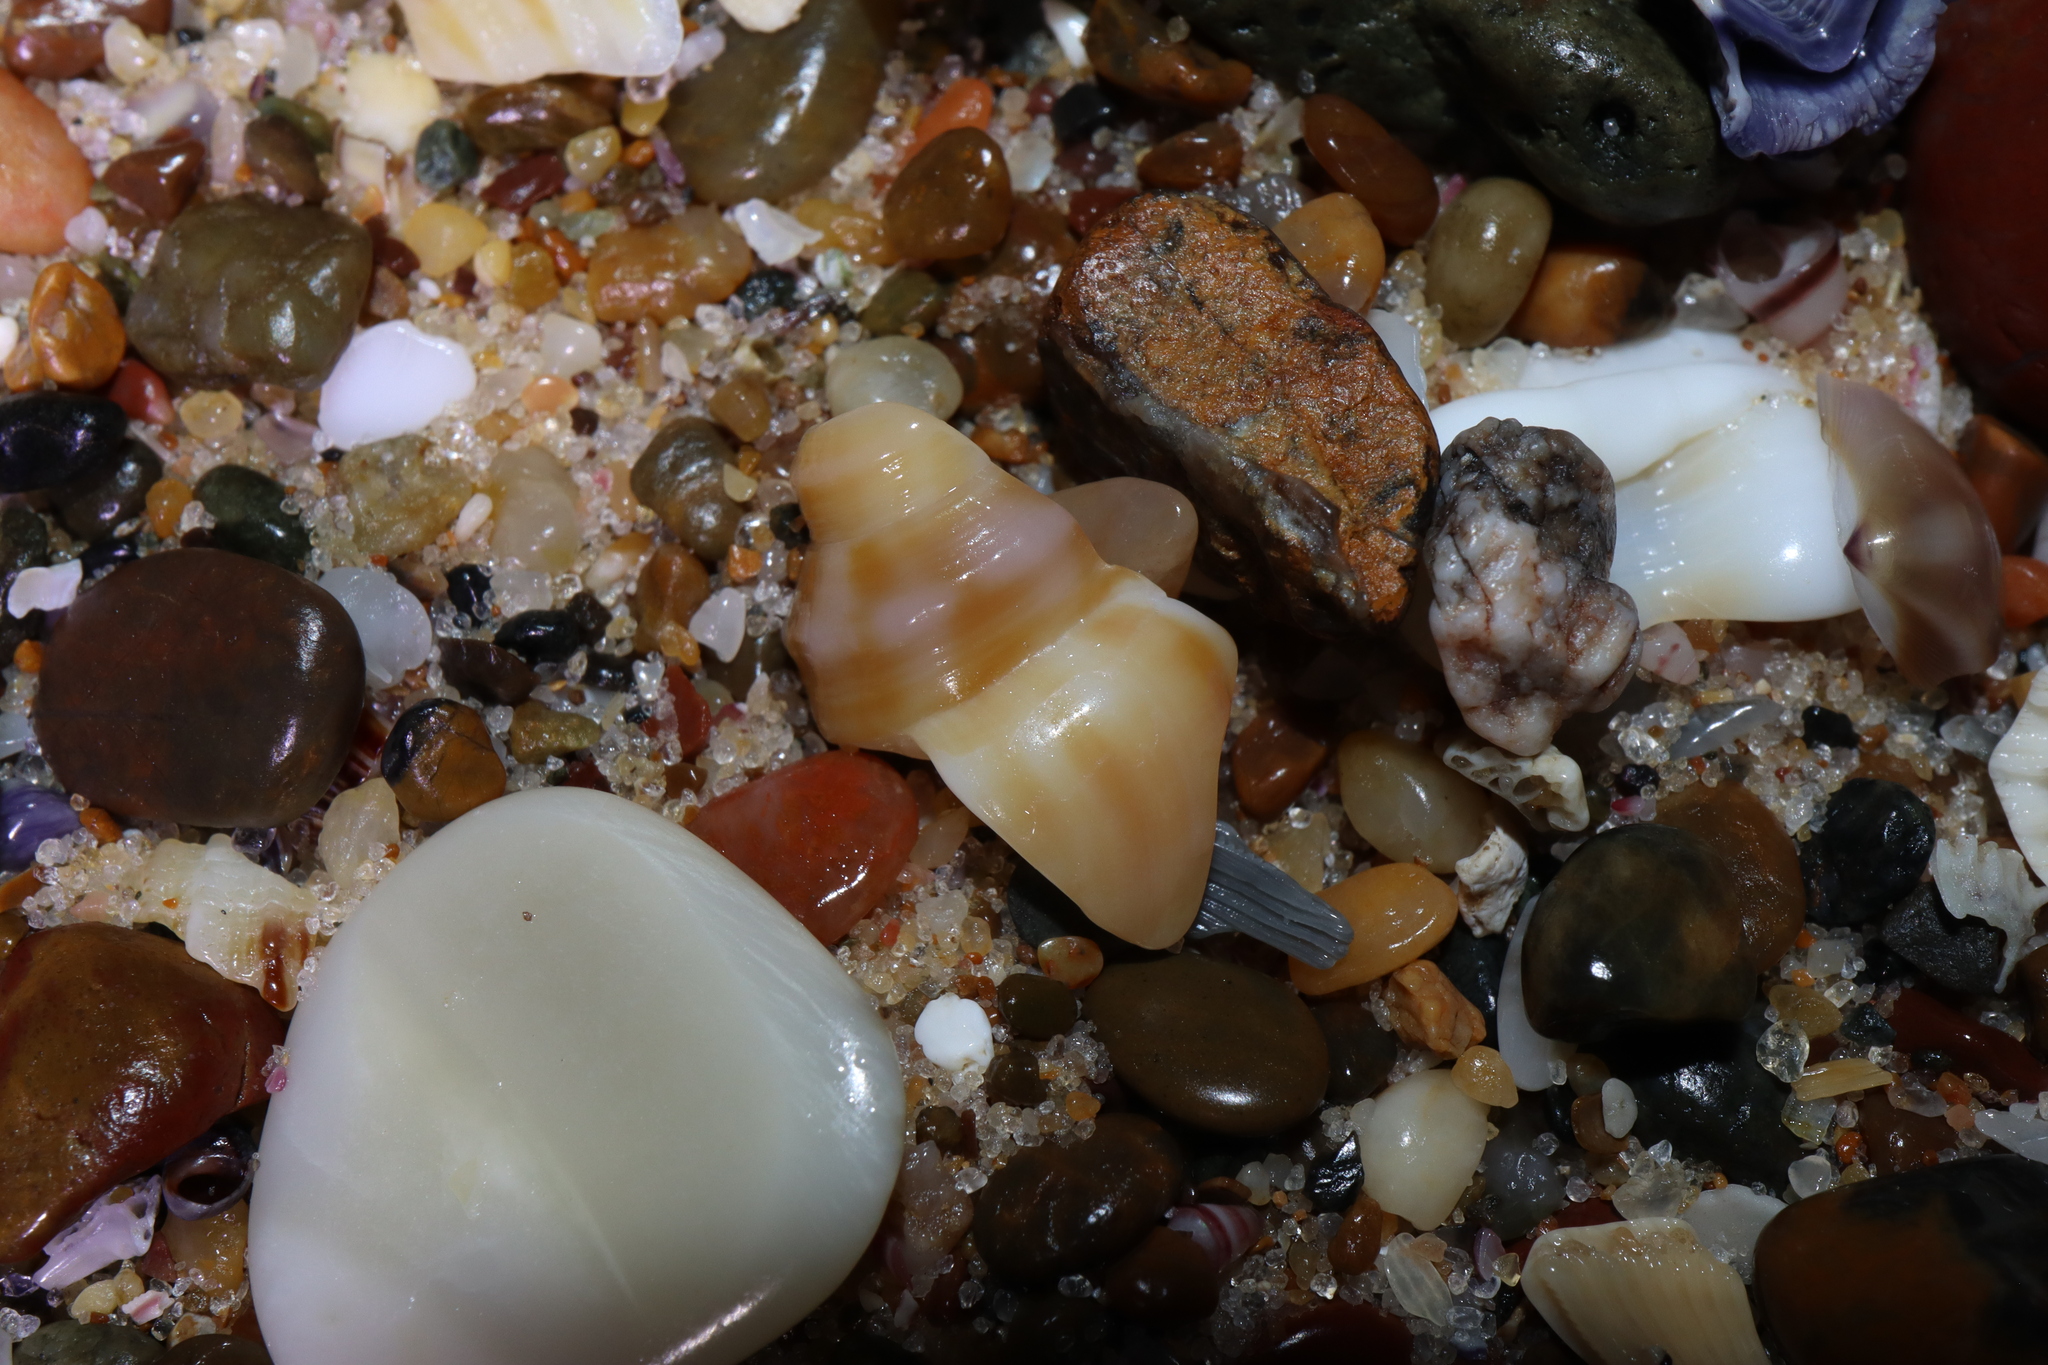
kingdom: Animalia
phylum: Mollusca
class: Gastropoda
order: Littorinimorpha
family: Struthiolariidae
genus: Tylospira
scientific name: Tylospira scutulata
